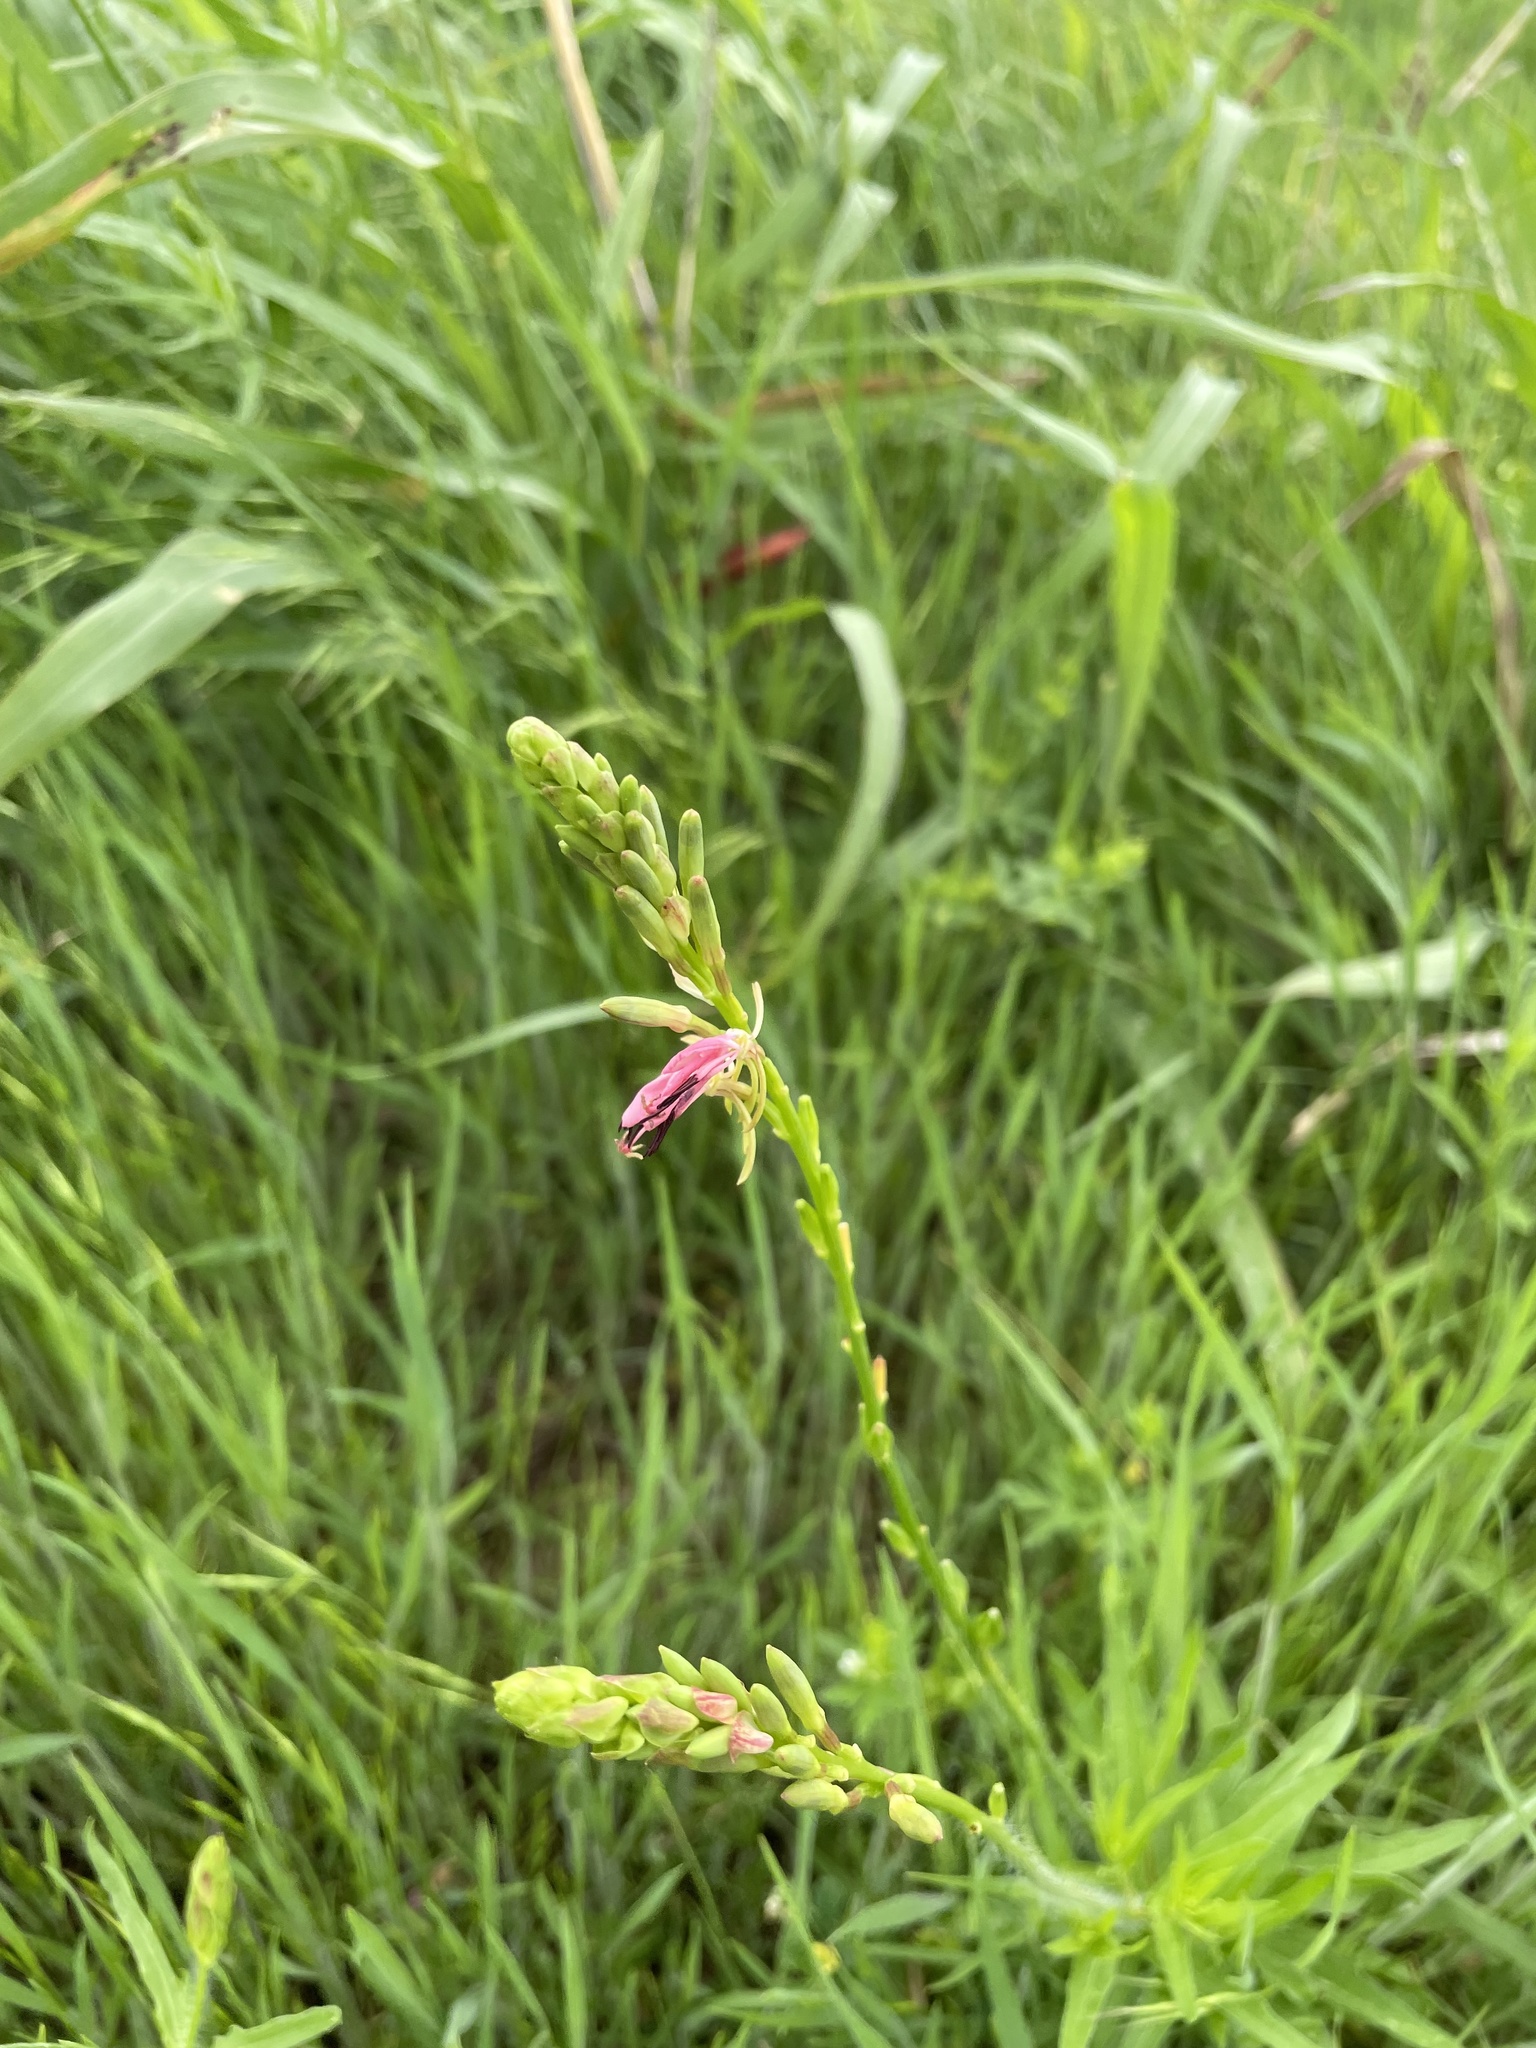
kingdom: Plantae
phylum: Tracheophyta
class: Magnoliopsida
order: Myrtales
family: Onagraceae
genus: Oenothera
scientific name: Oenothera suffulta
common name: Kisses
